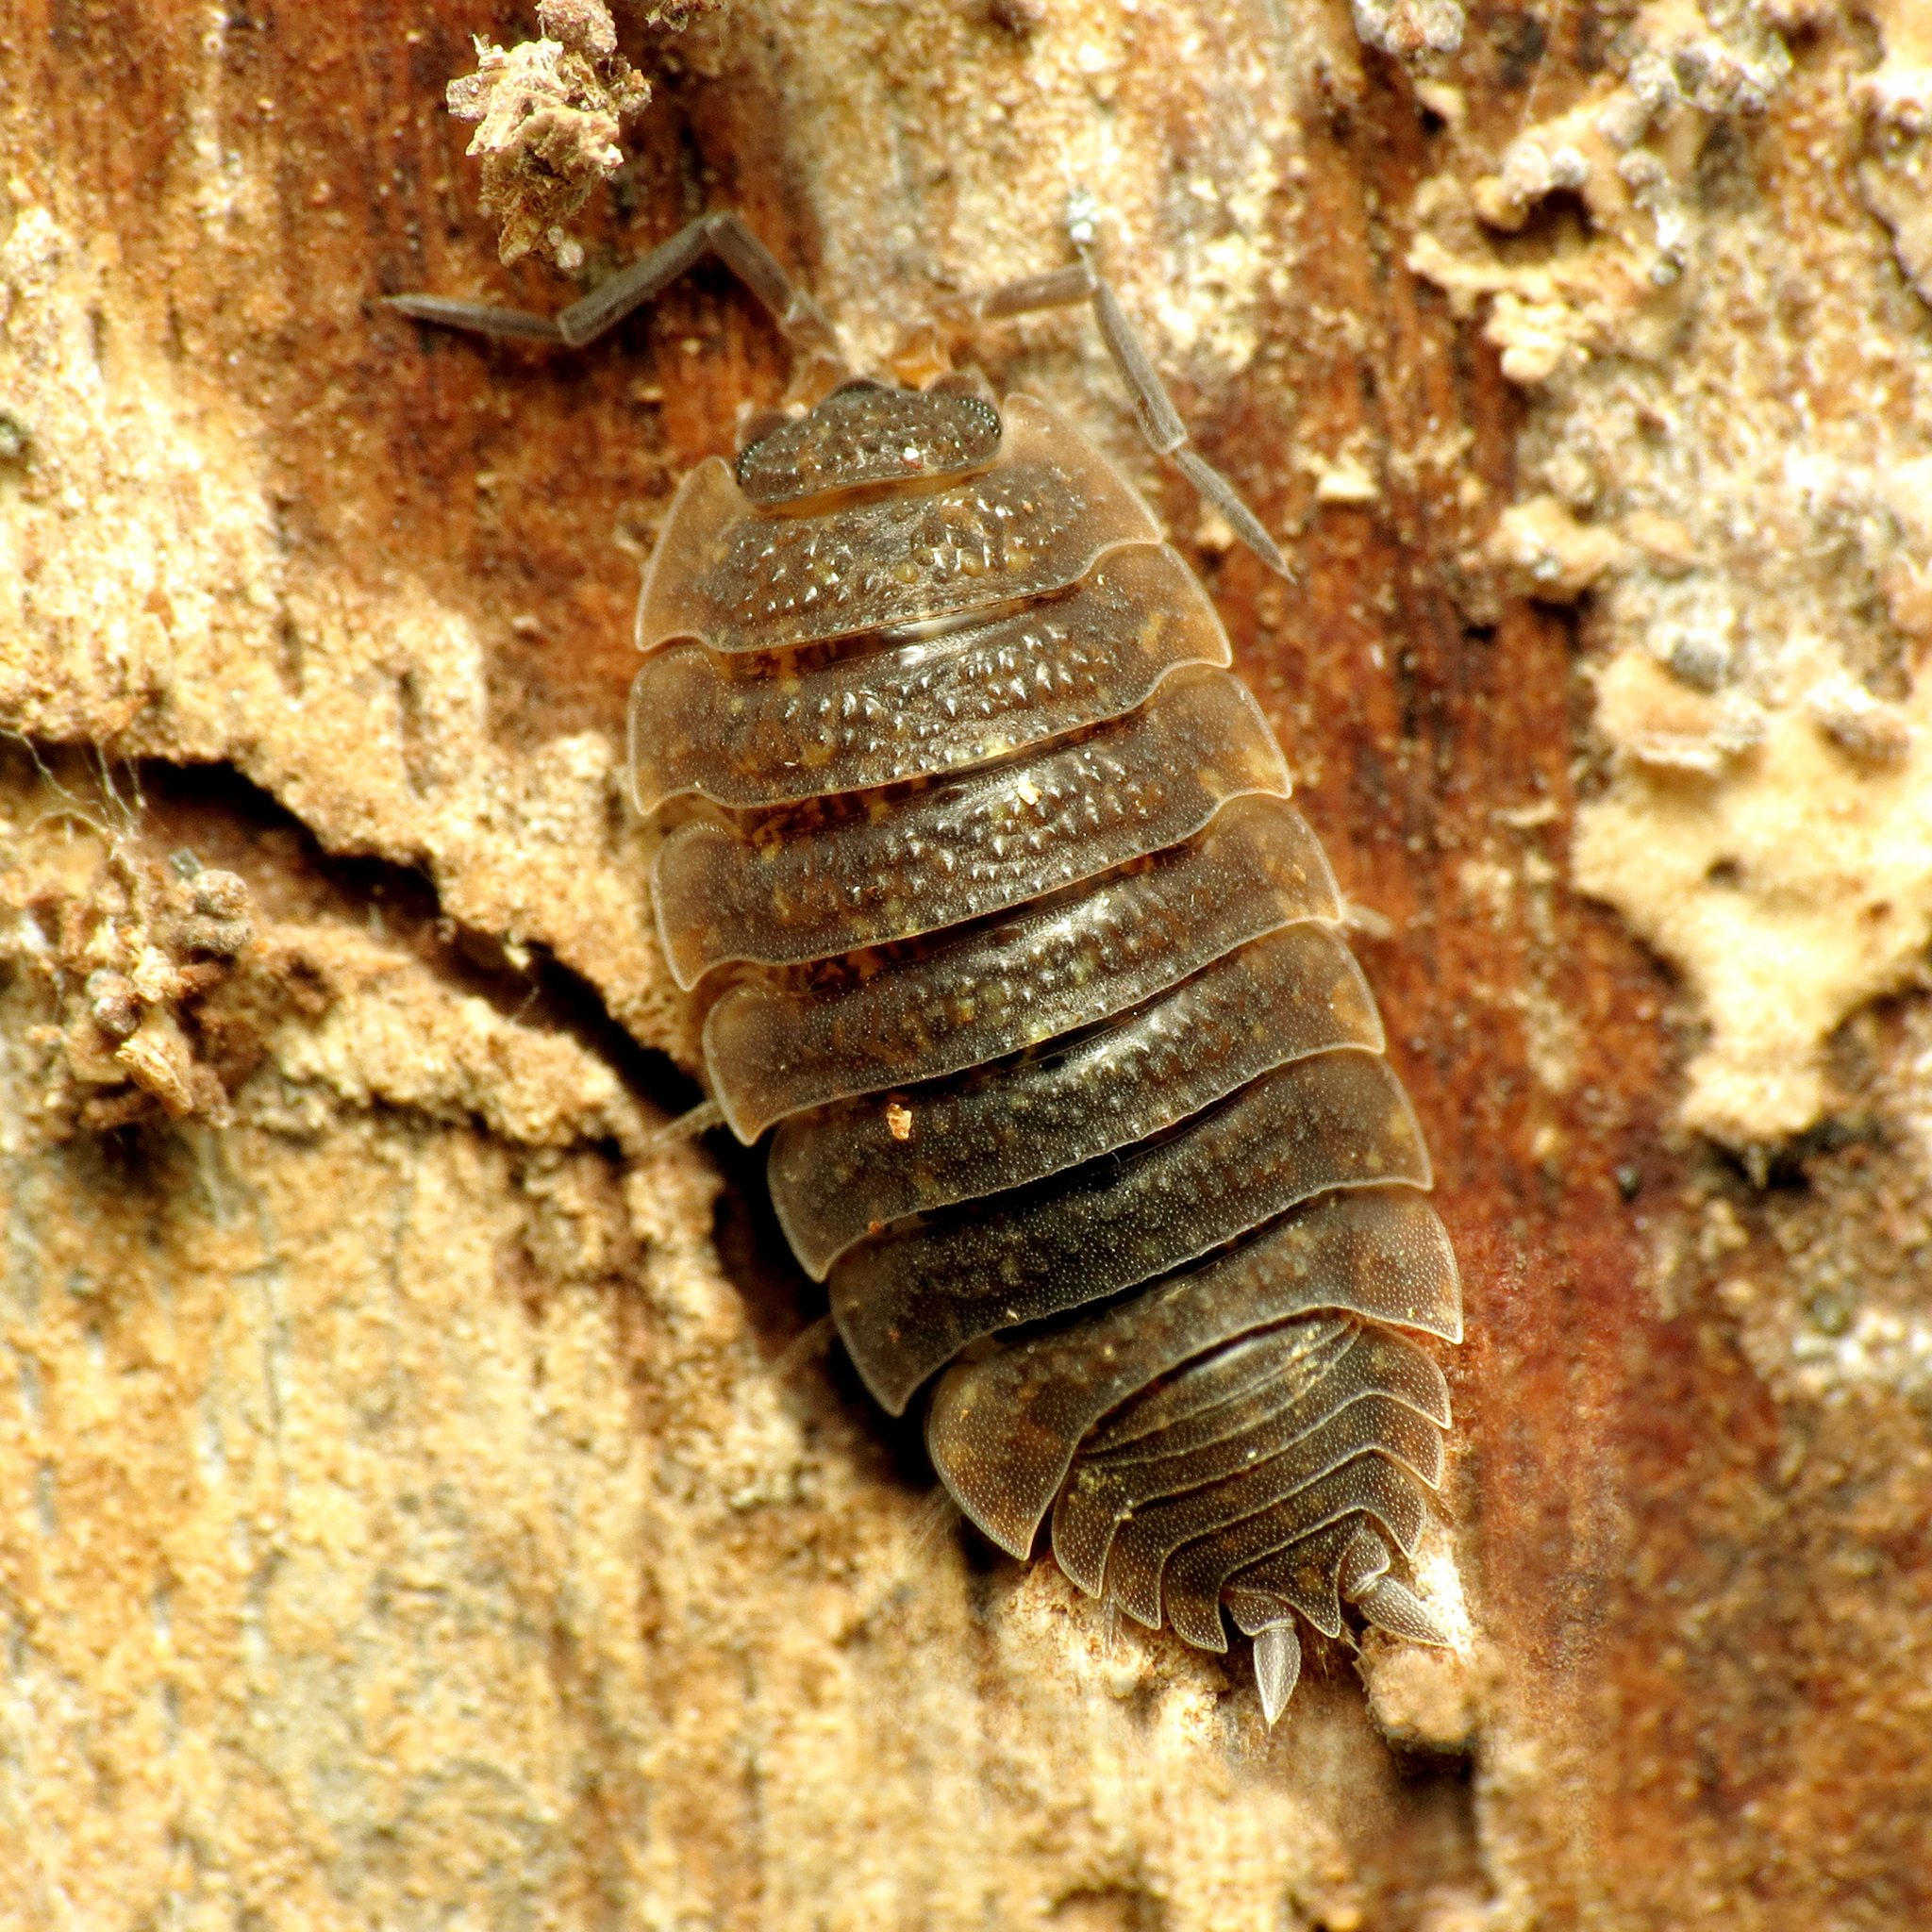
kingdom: Animalia
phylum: Arthropoda
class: Malacostraca
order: Isopoda
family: Porcellionidae
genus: Porcellio
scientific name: Porcellio scaber
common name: Common rough woodlouse
